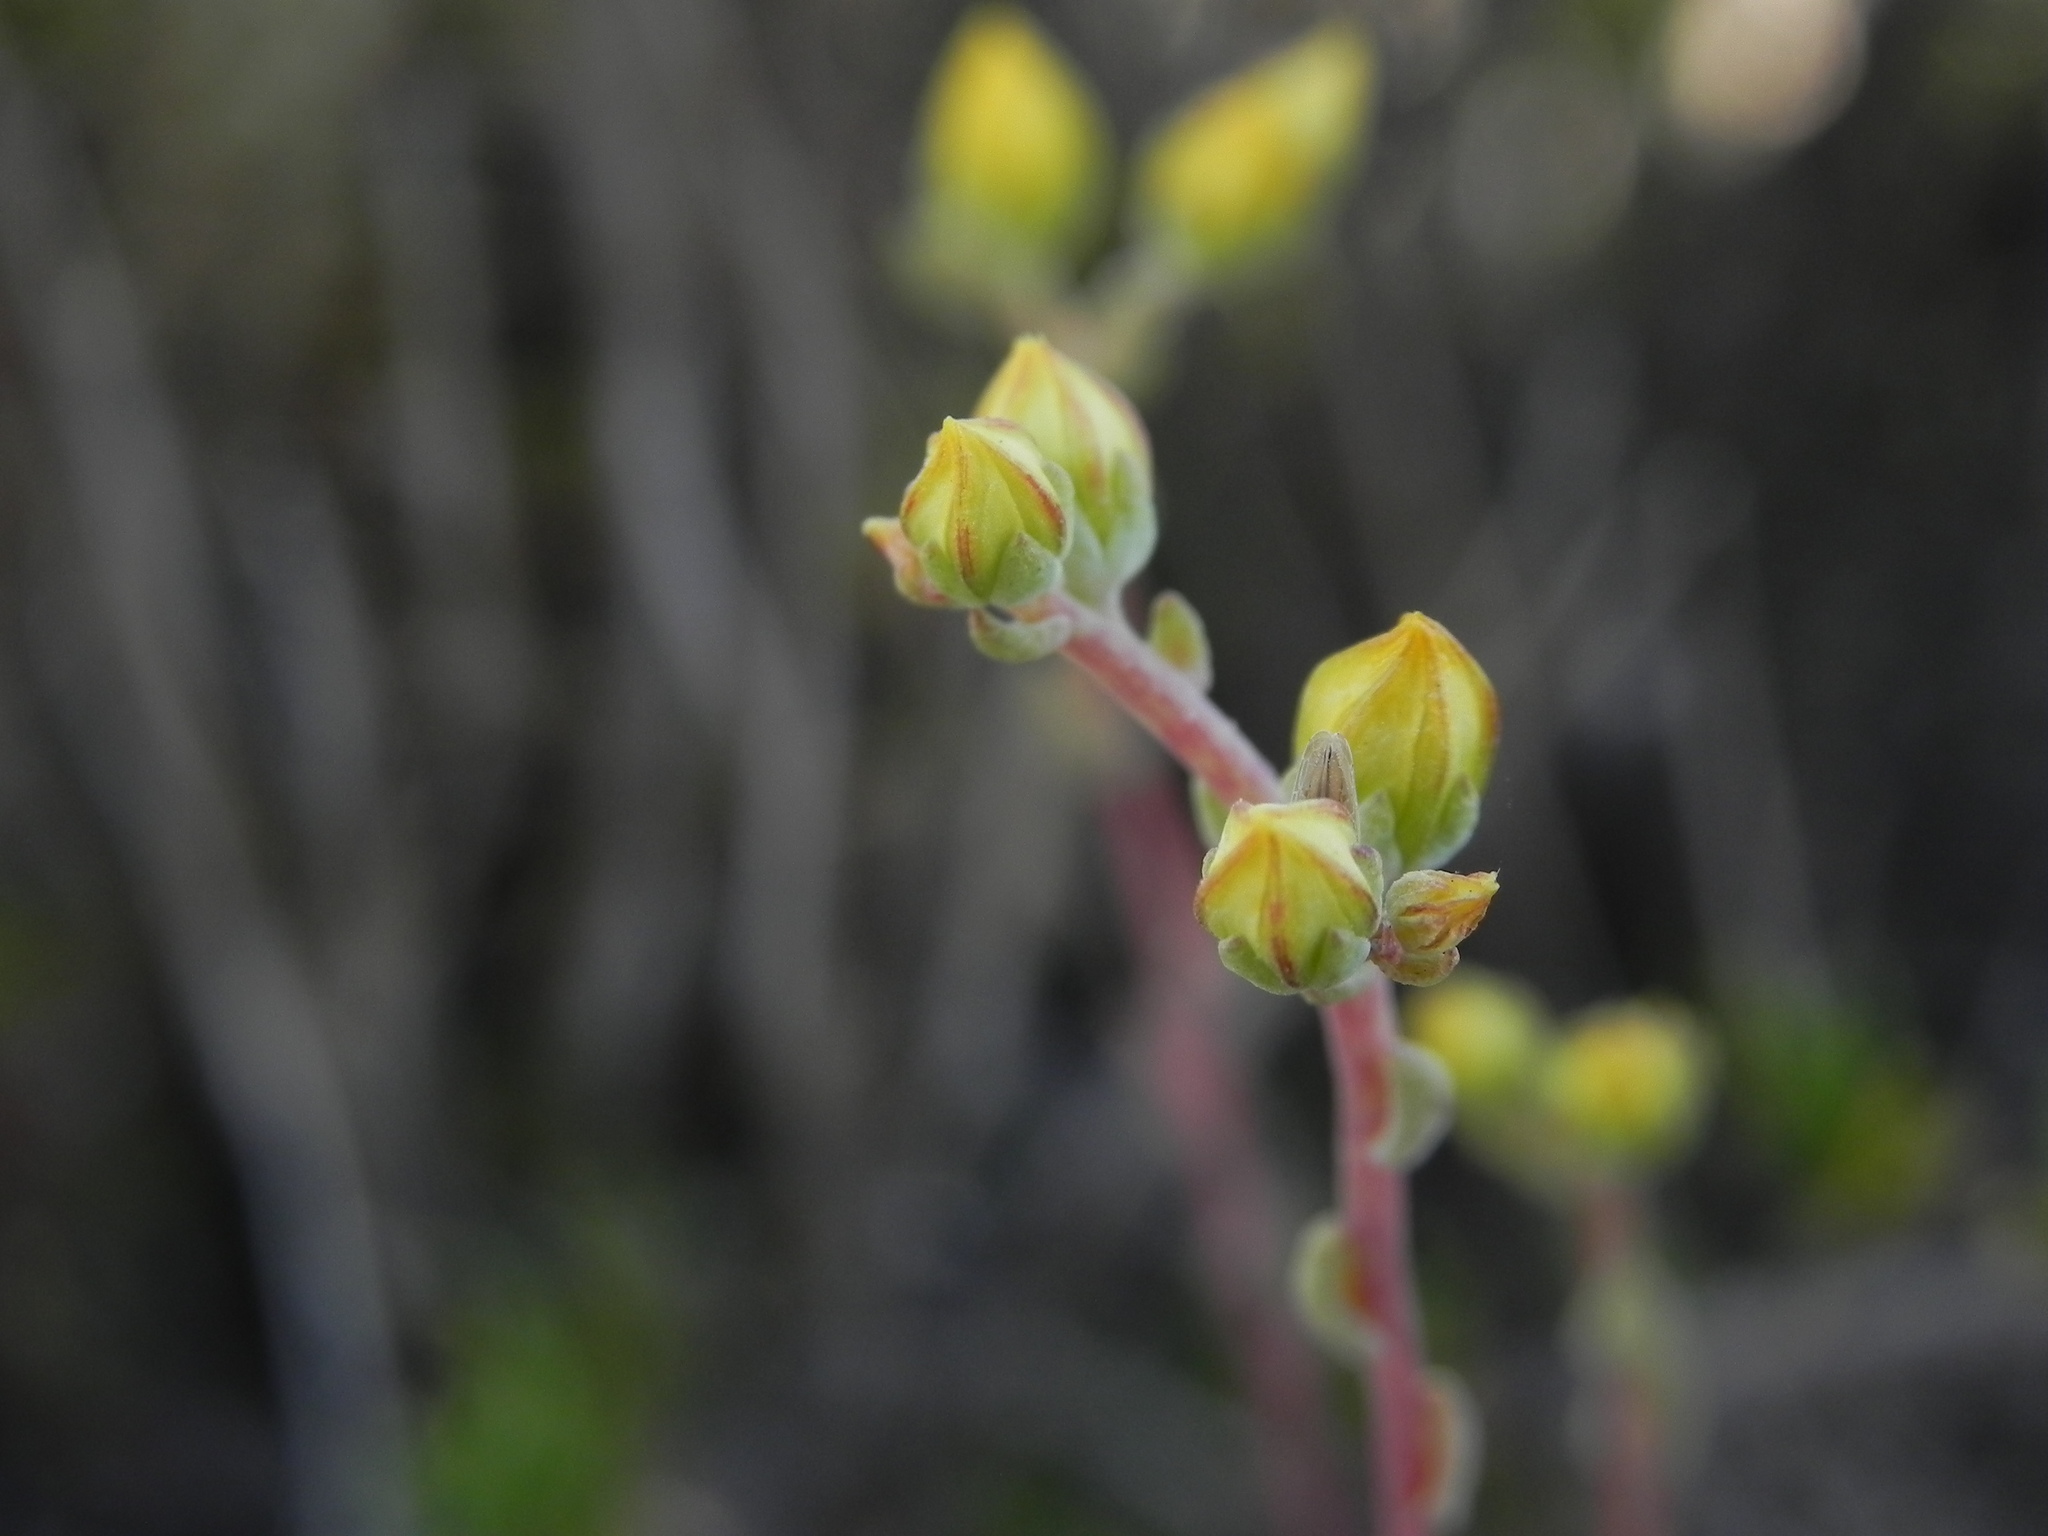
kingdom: Plantae
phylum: Tracheophyta
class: Magnoliopsida
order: Saxifragales
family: Crassulaceae
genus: Dudleya
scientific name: Dudleya variegata
